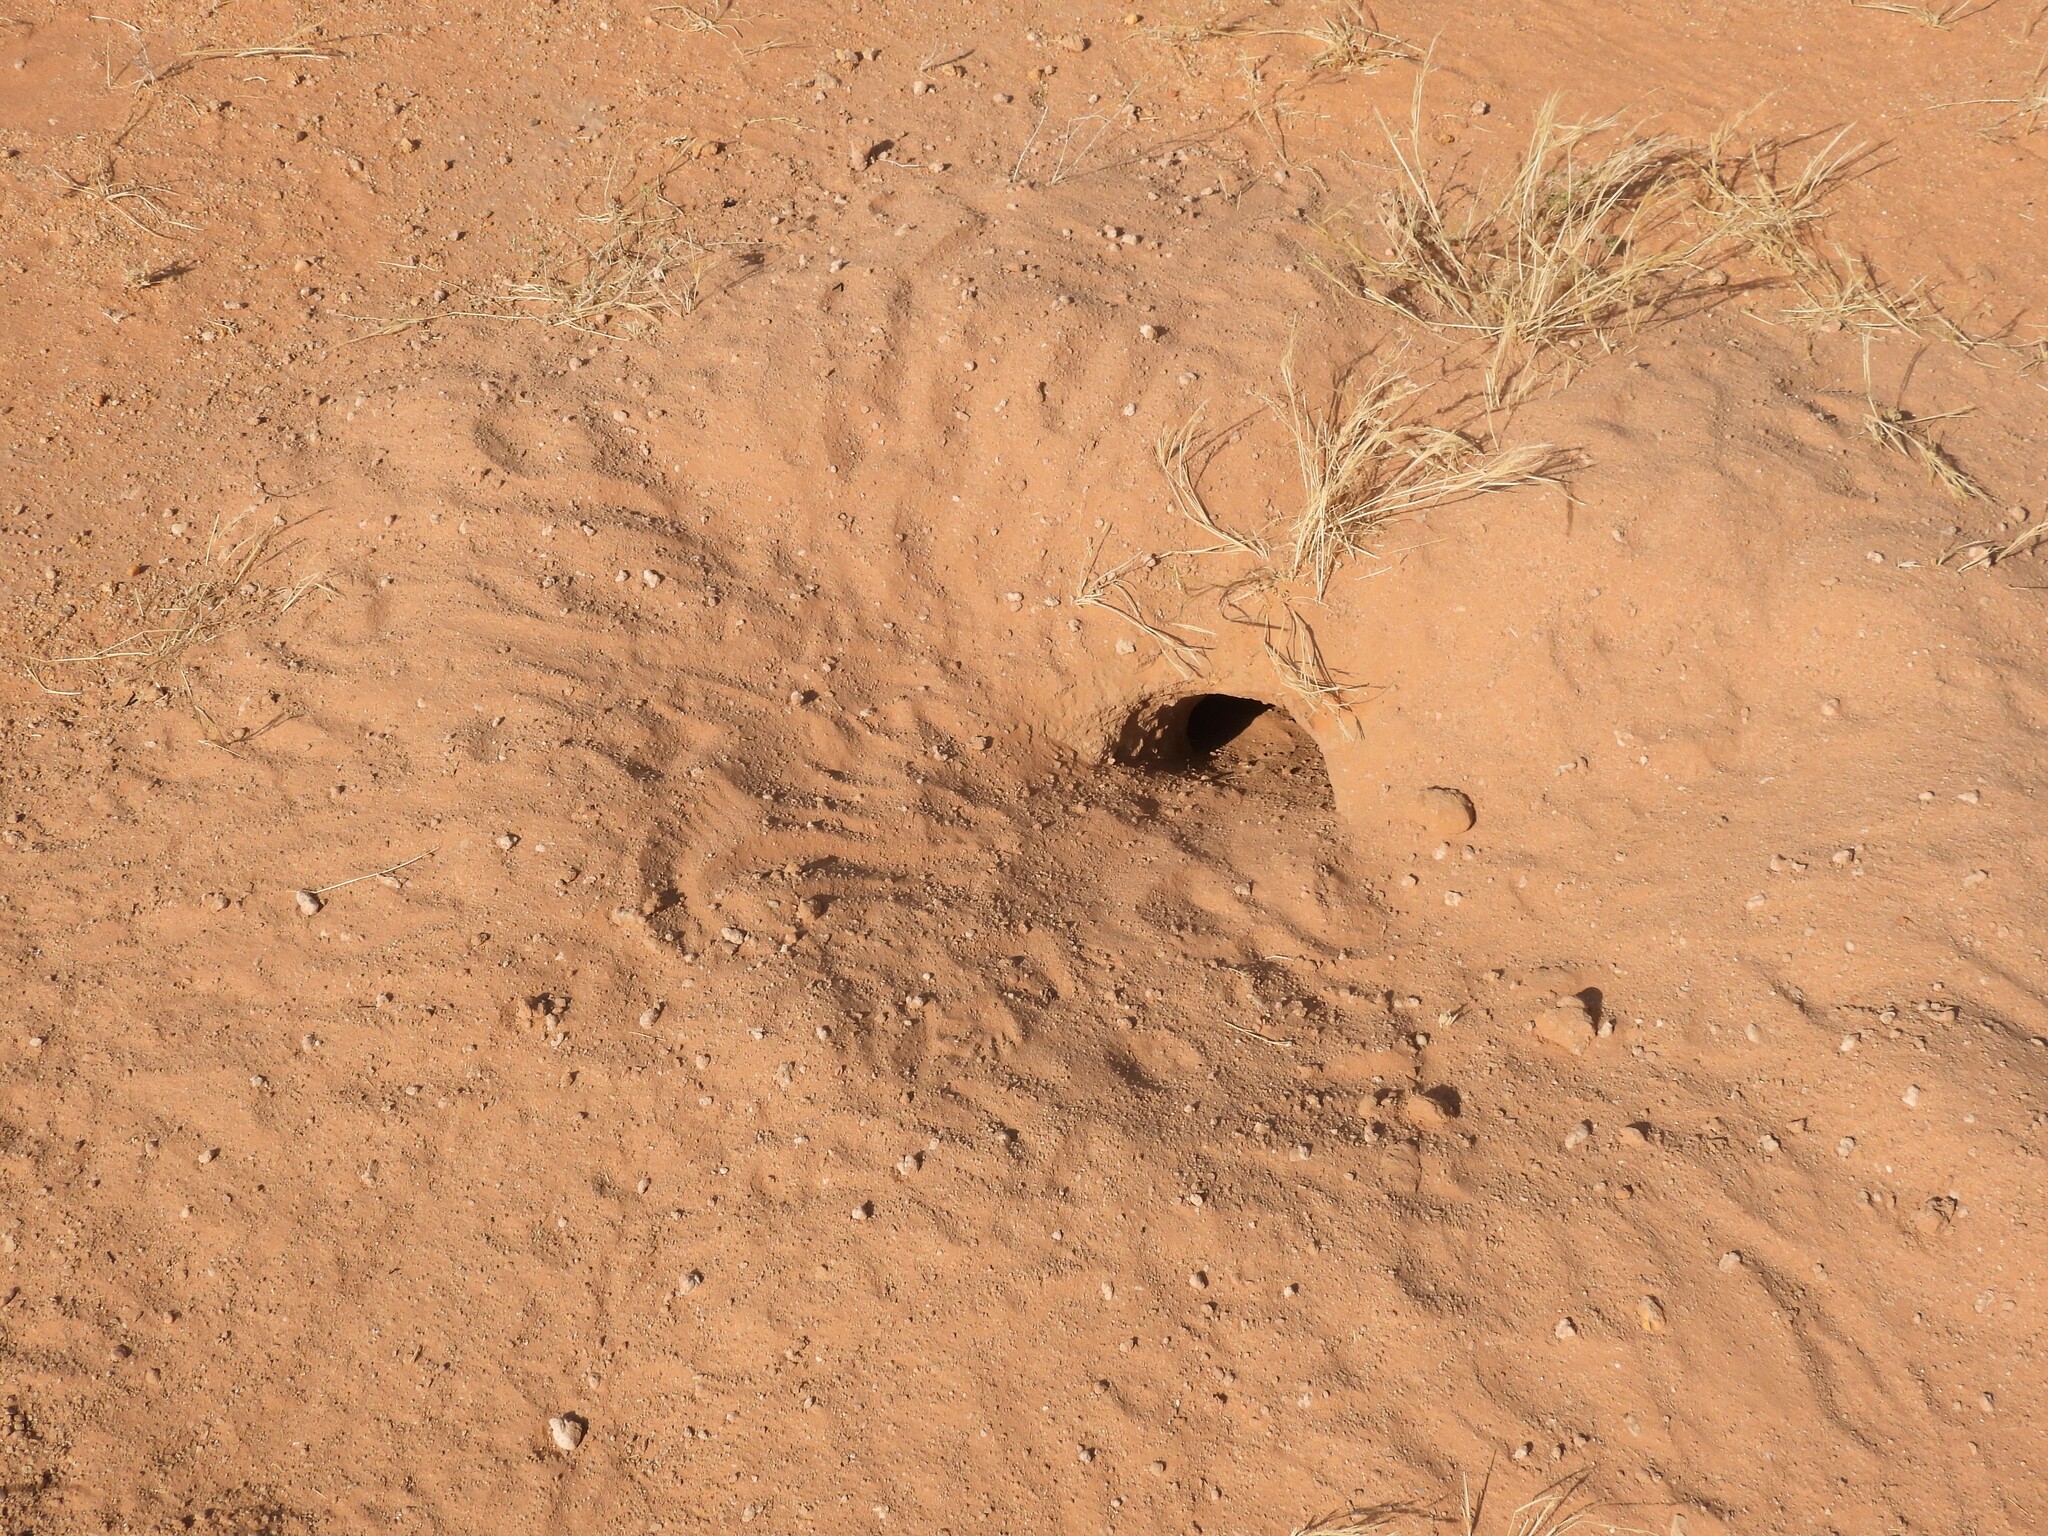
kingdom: Animalia
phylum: Chordata
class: Squamata
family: Agamidae
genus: Uromastyx
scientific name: Uromastyx aegyptia
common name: Egyptian mastigure
